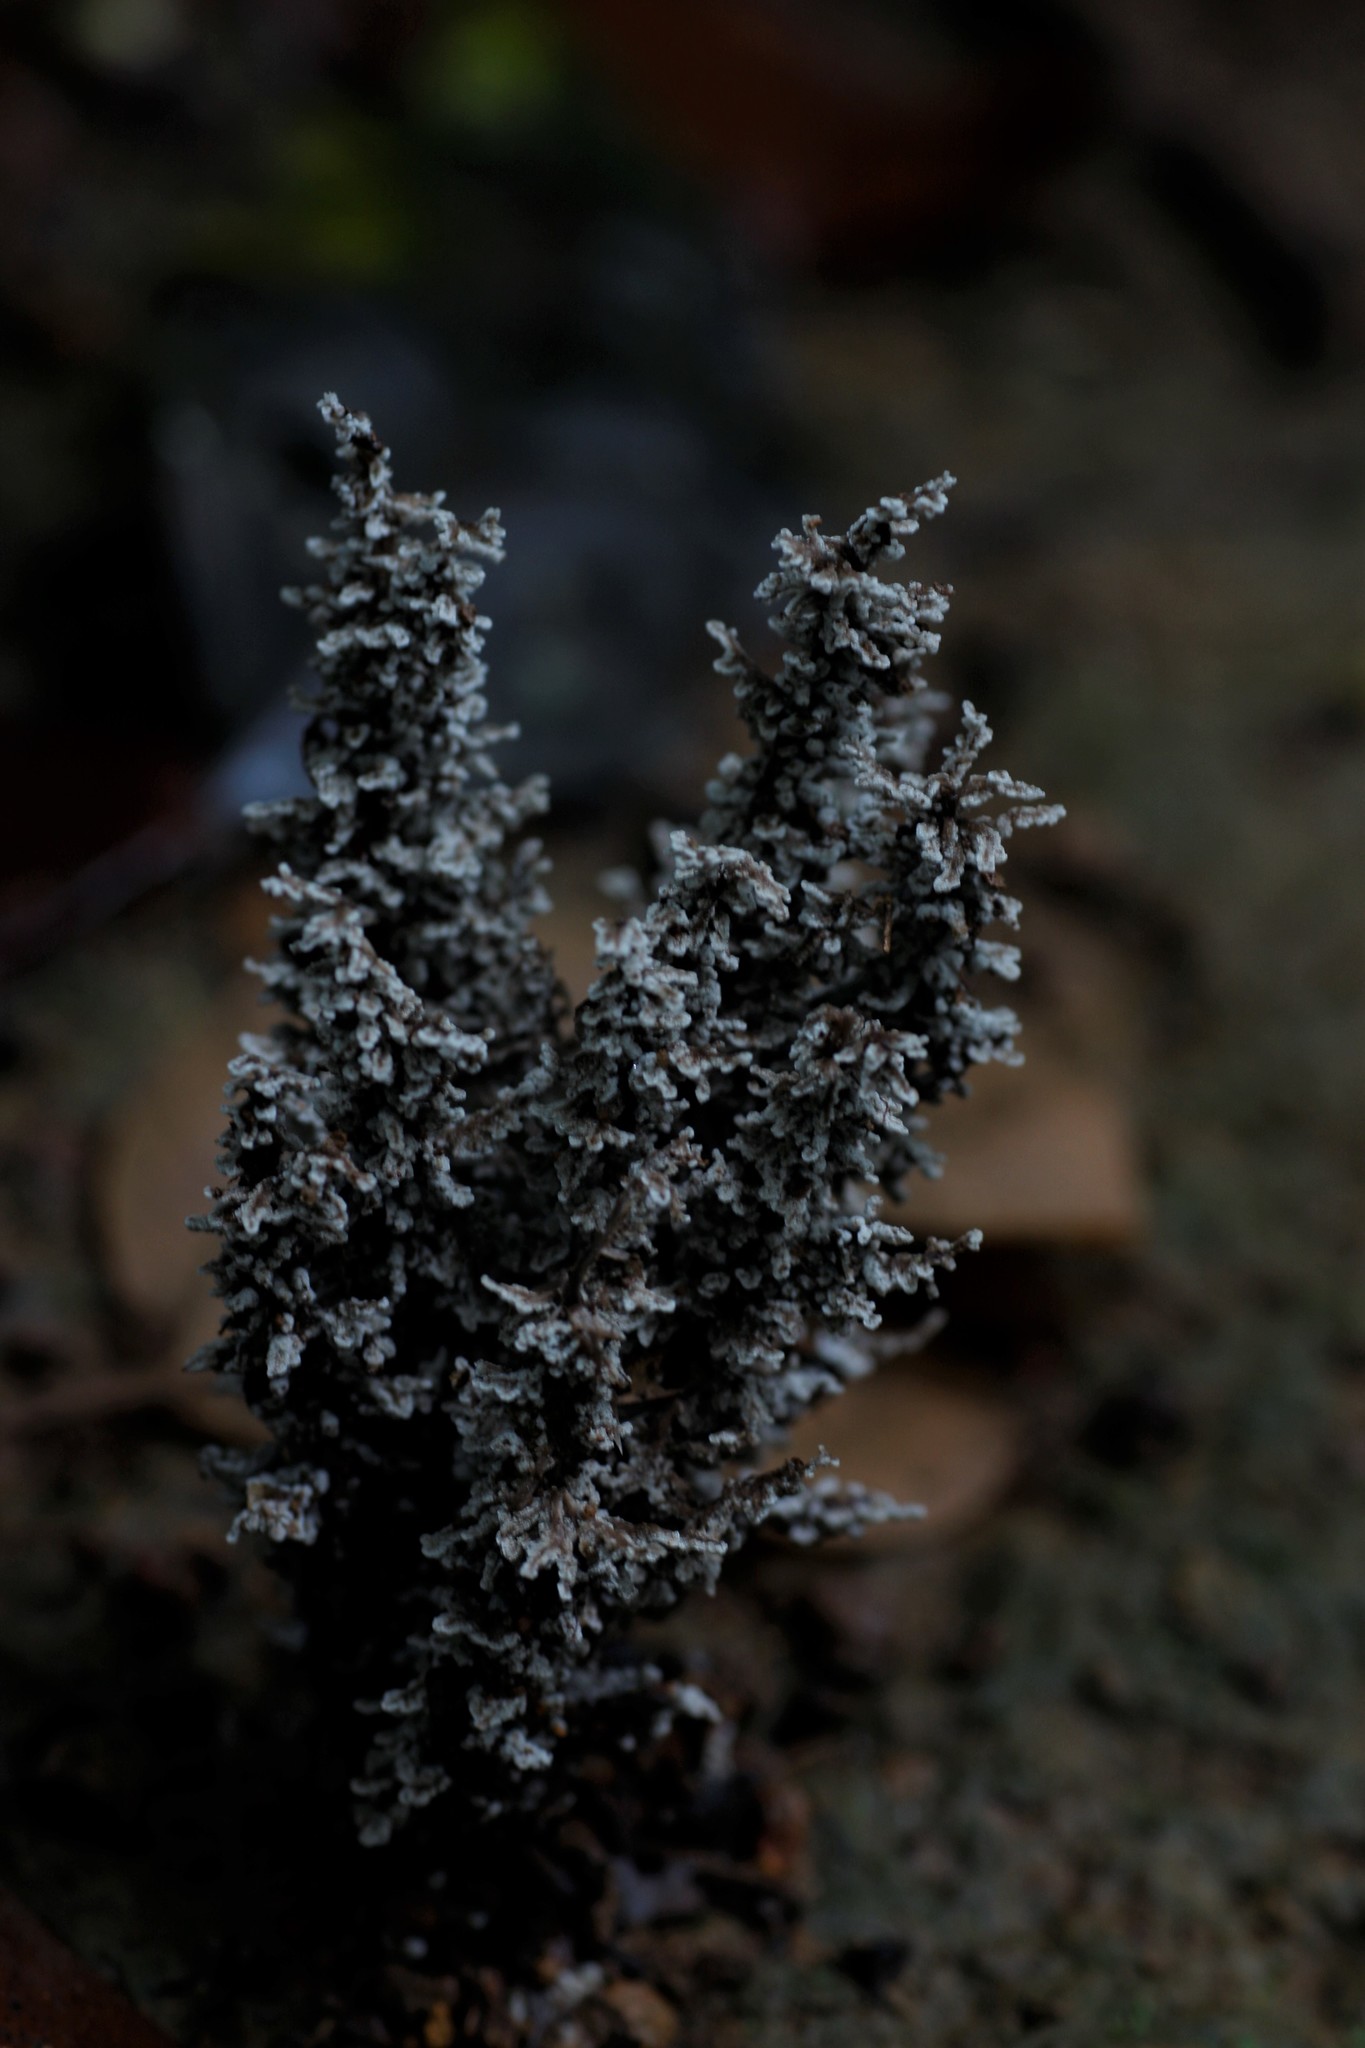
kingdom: Fungi
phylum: Ascomycota
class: Sordariomycetes
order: Xylariales
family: Xylariaceae
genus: Xylaria
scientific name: Xylaria terricola
